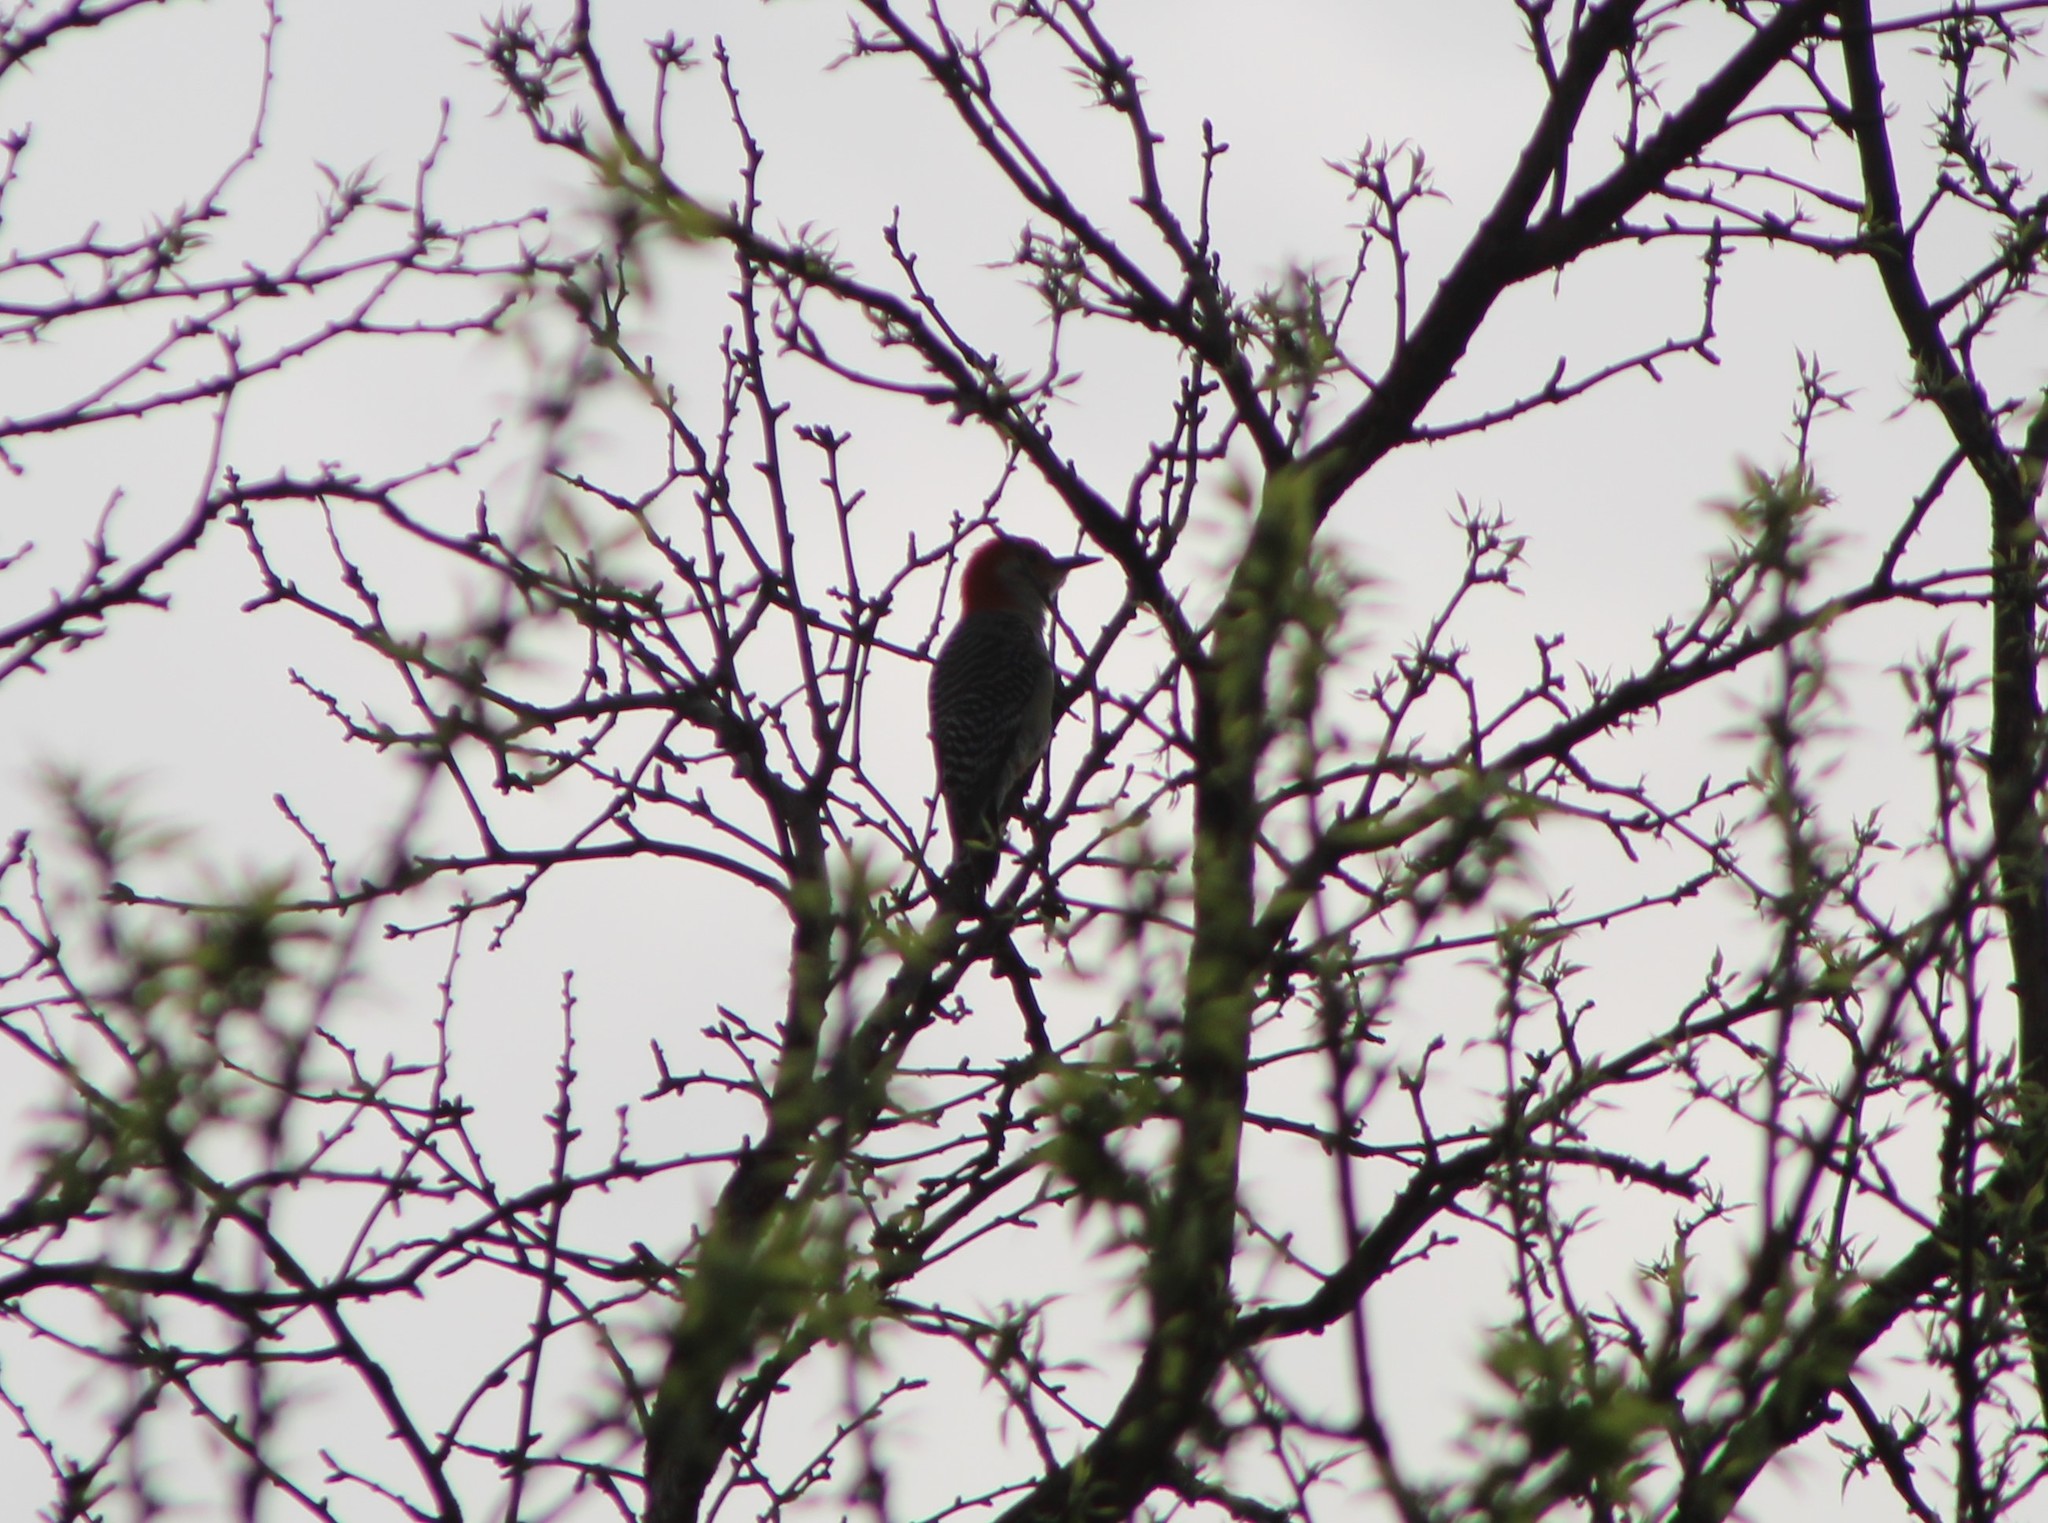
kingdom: Animalia
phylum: Chordata
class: Aves
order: Piciformes
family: Picidae
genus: Melanerpes
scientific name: Melanerpes carolinus
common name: Red-bellied woodpecker
